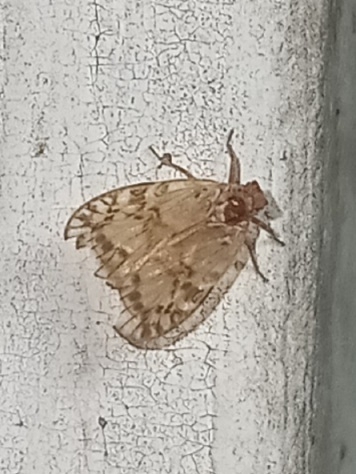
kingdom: Animalia
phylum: Arthropoda
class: Insecta
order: Hemiptera
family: Cixiidae
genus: Bothriocera
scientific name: Bothriocera drakei
